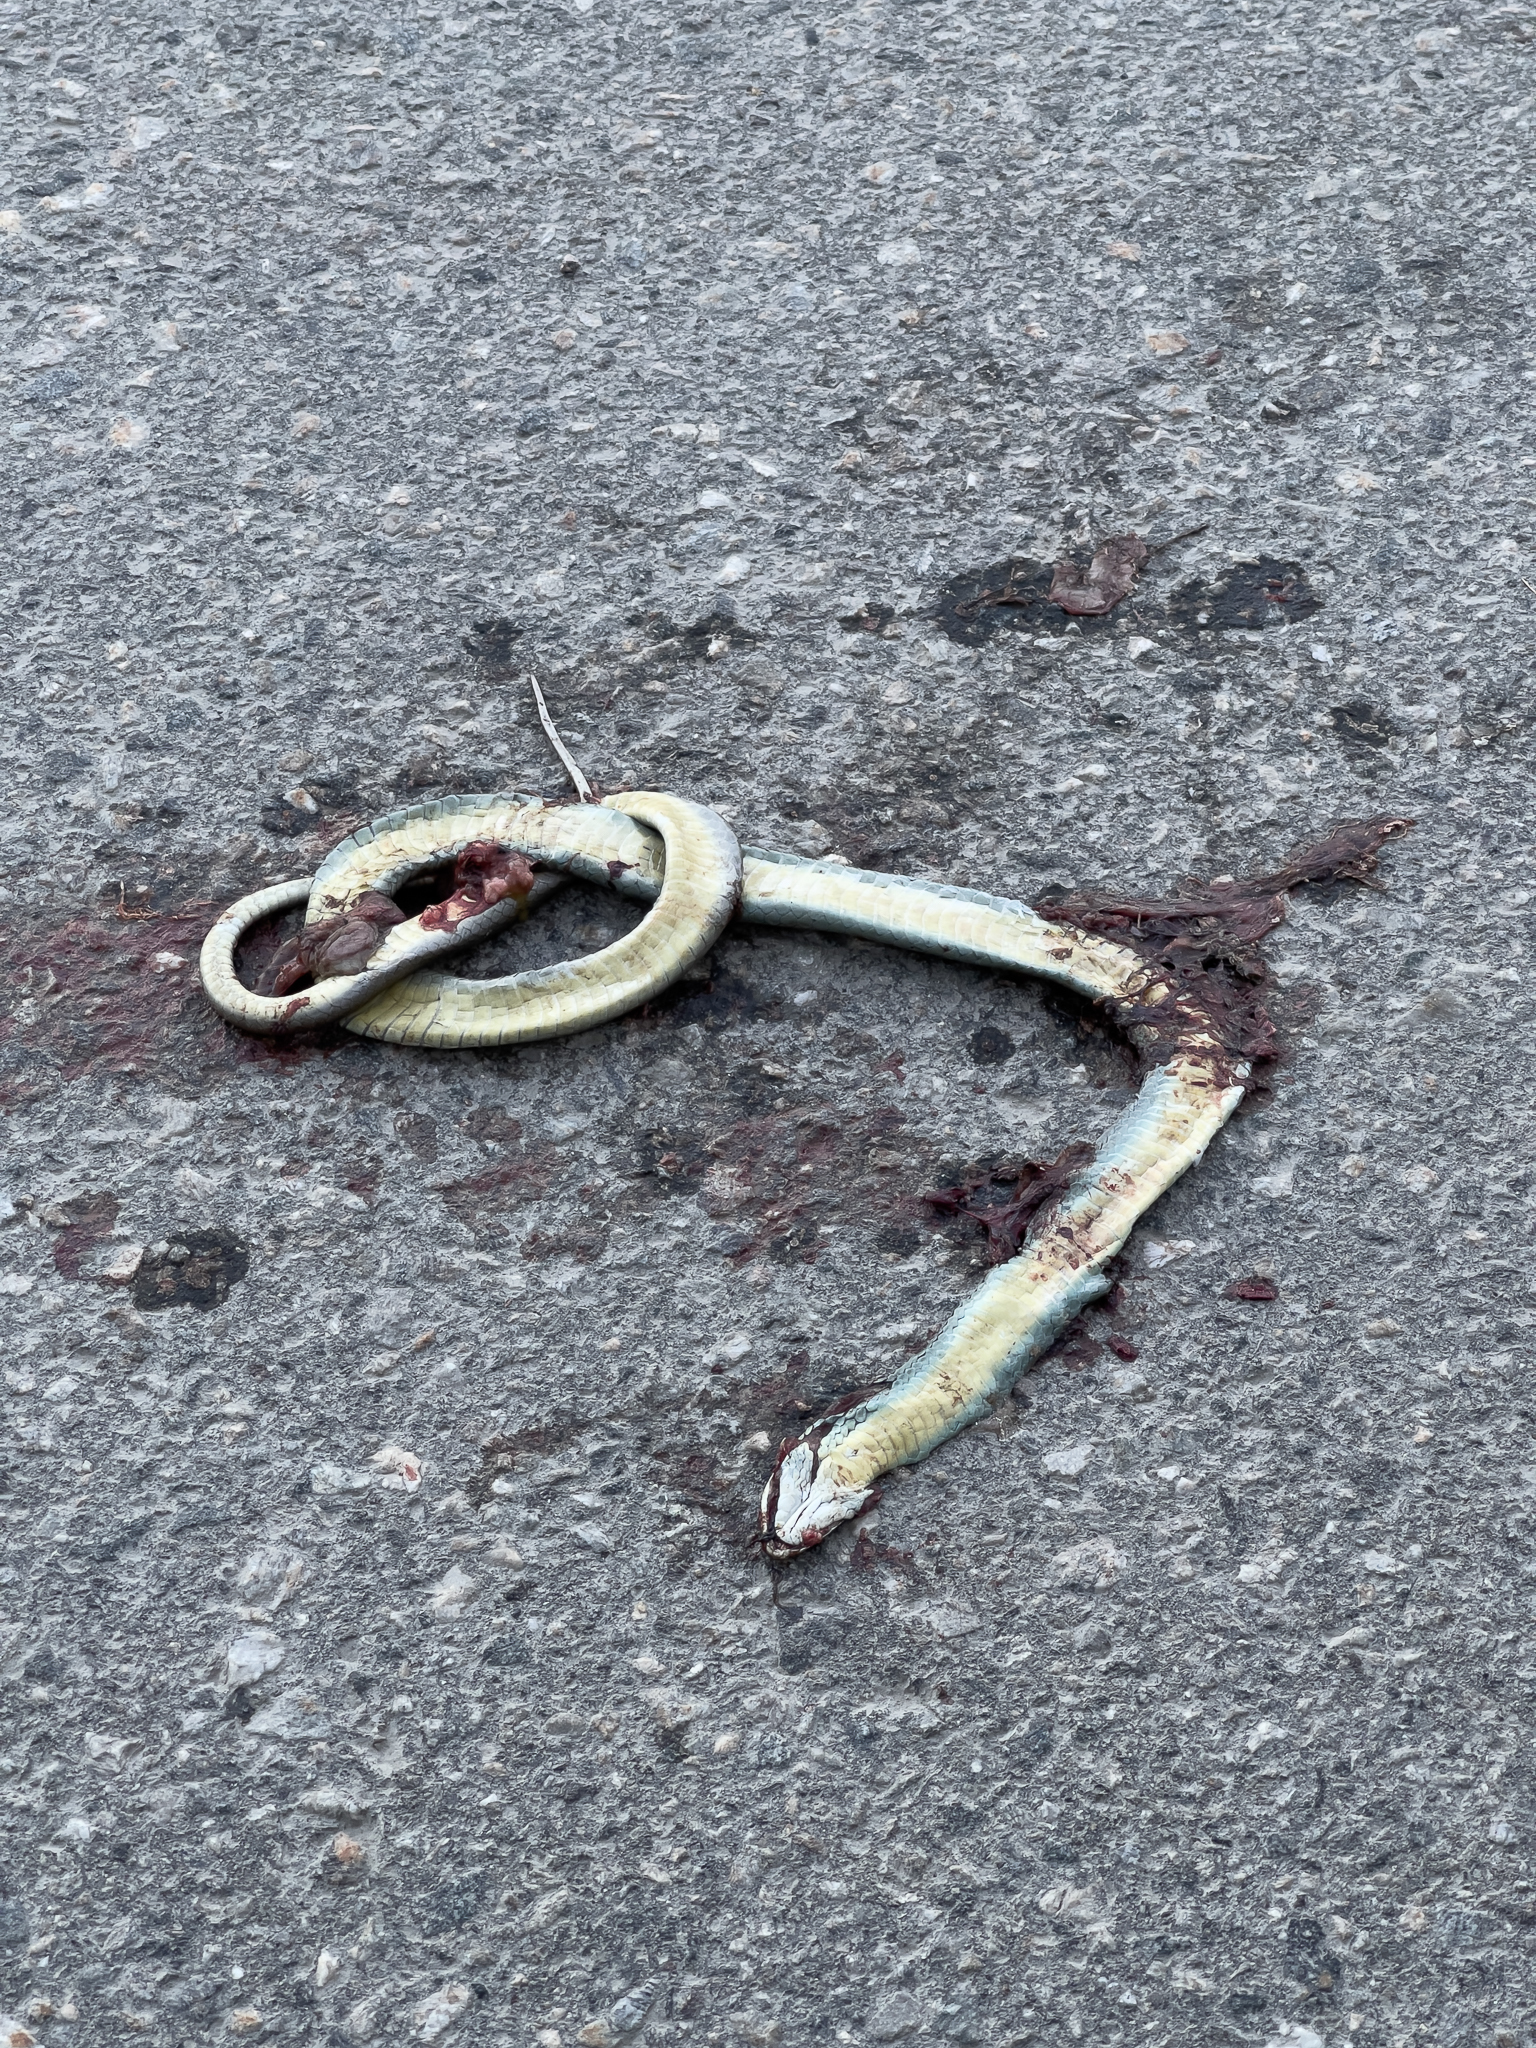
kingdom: Animalia
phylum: Chordata
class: Squamata
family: Colubridae
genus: Coluber
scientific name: Coluber constrictor
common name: Eastern racer
